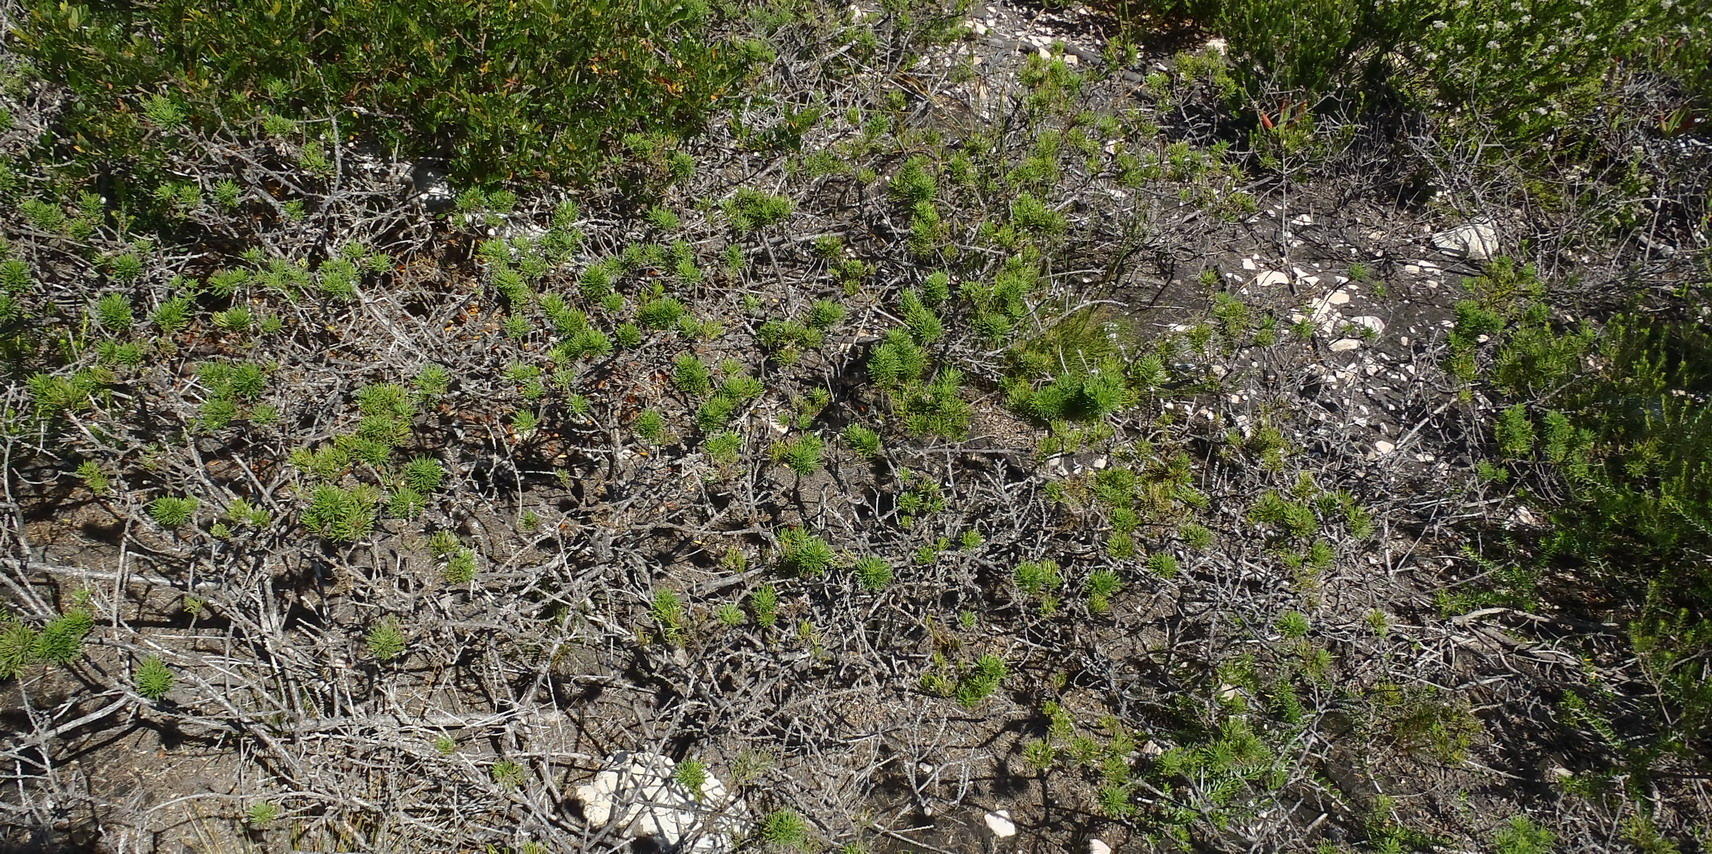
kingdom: Plantae
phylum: Tracheophyta
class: Magnoliopsida
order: Fabales
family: Fabaceae
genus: Psoralea
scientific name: Psoralea vanberkelae
